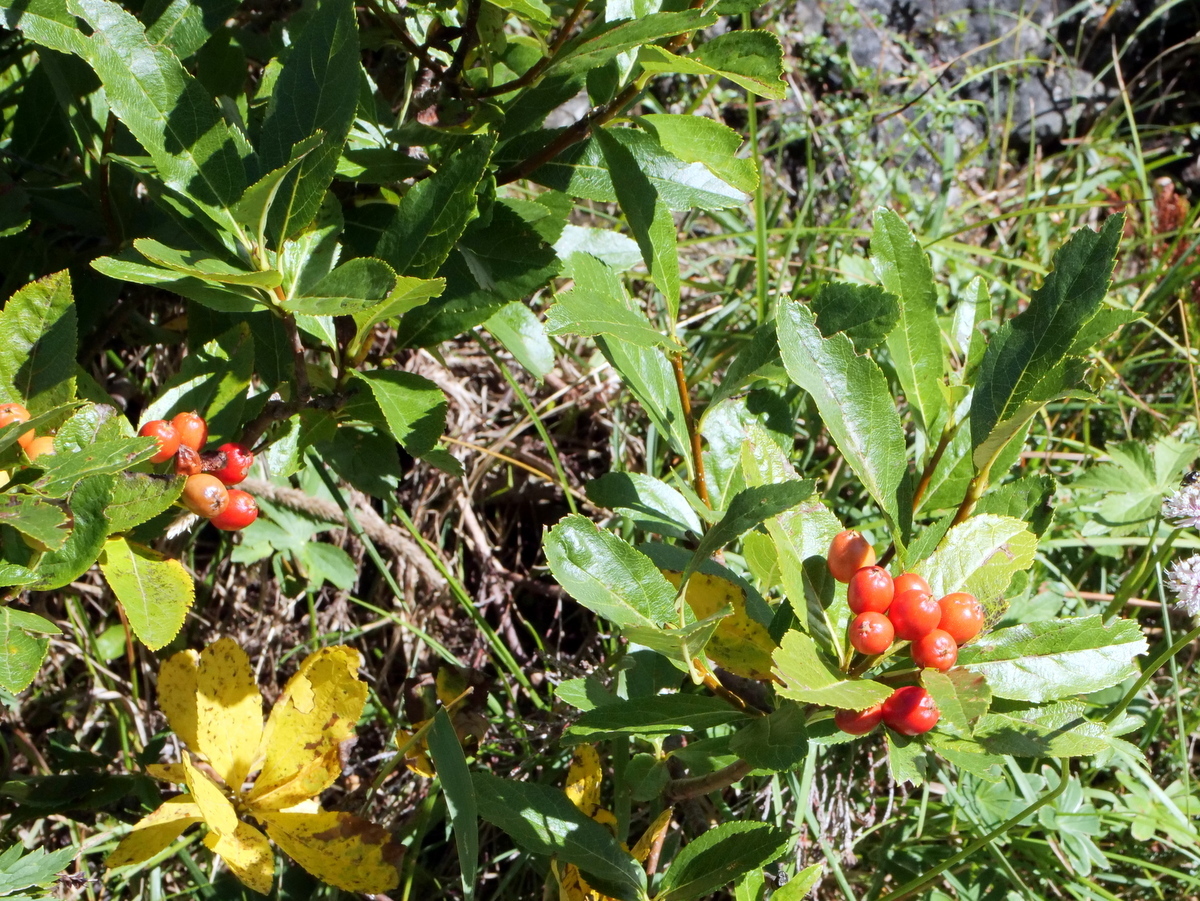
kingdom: Plantae
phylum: Tracheophyta
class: Magnoliopsida
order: Rosales
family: Rosaceae
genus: Chamaemespilus
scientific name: Chamaemespilus alpina
